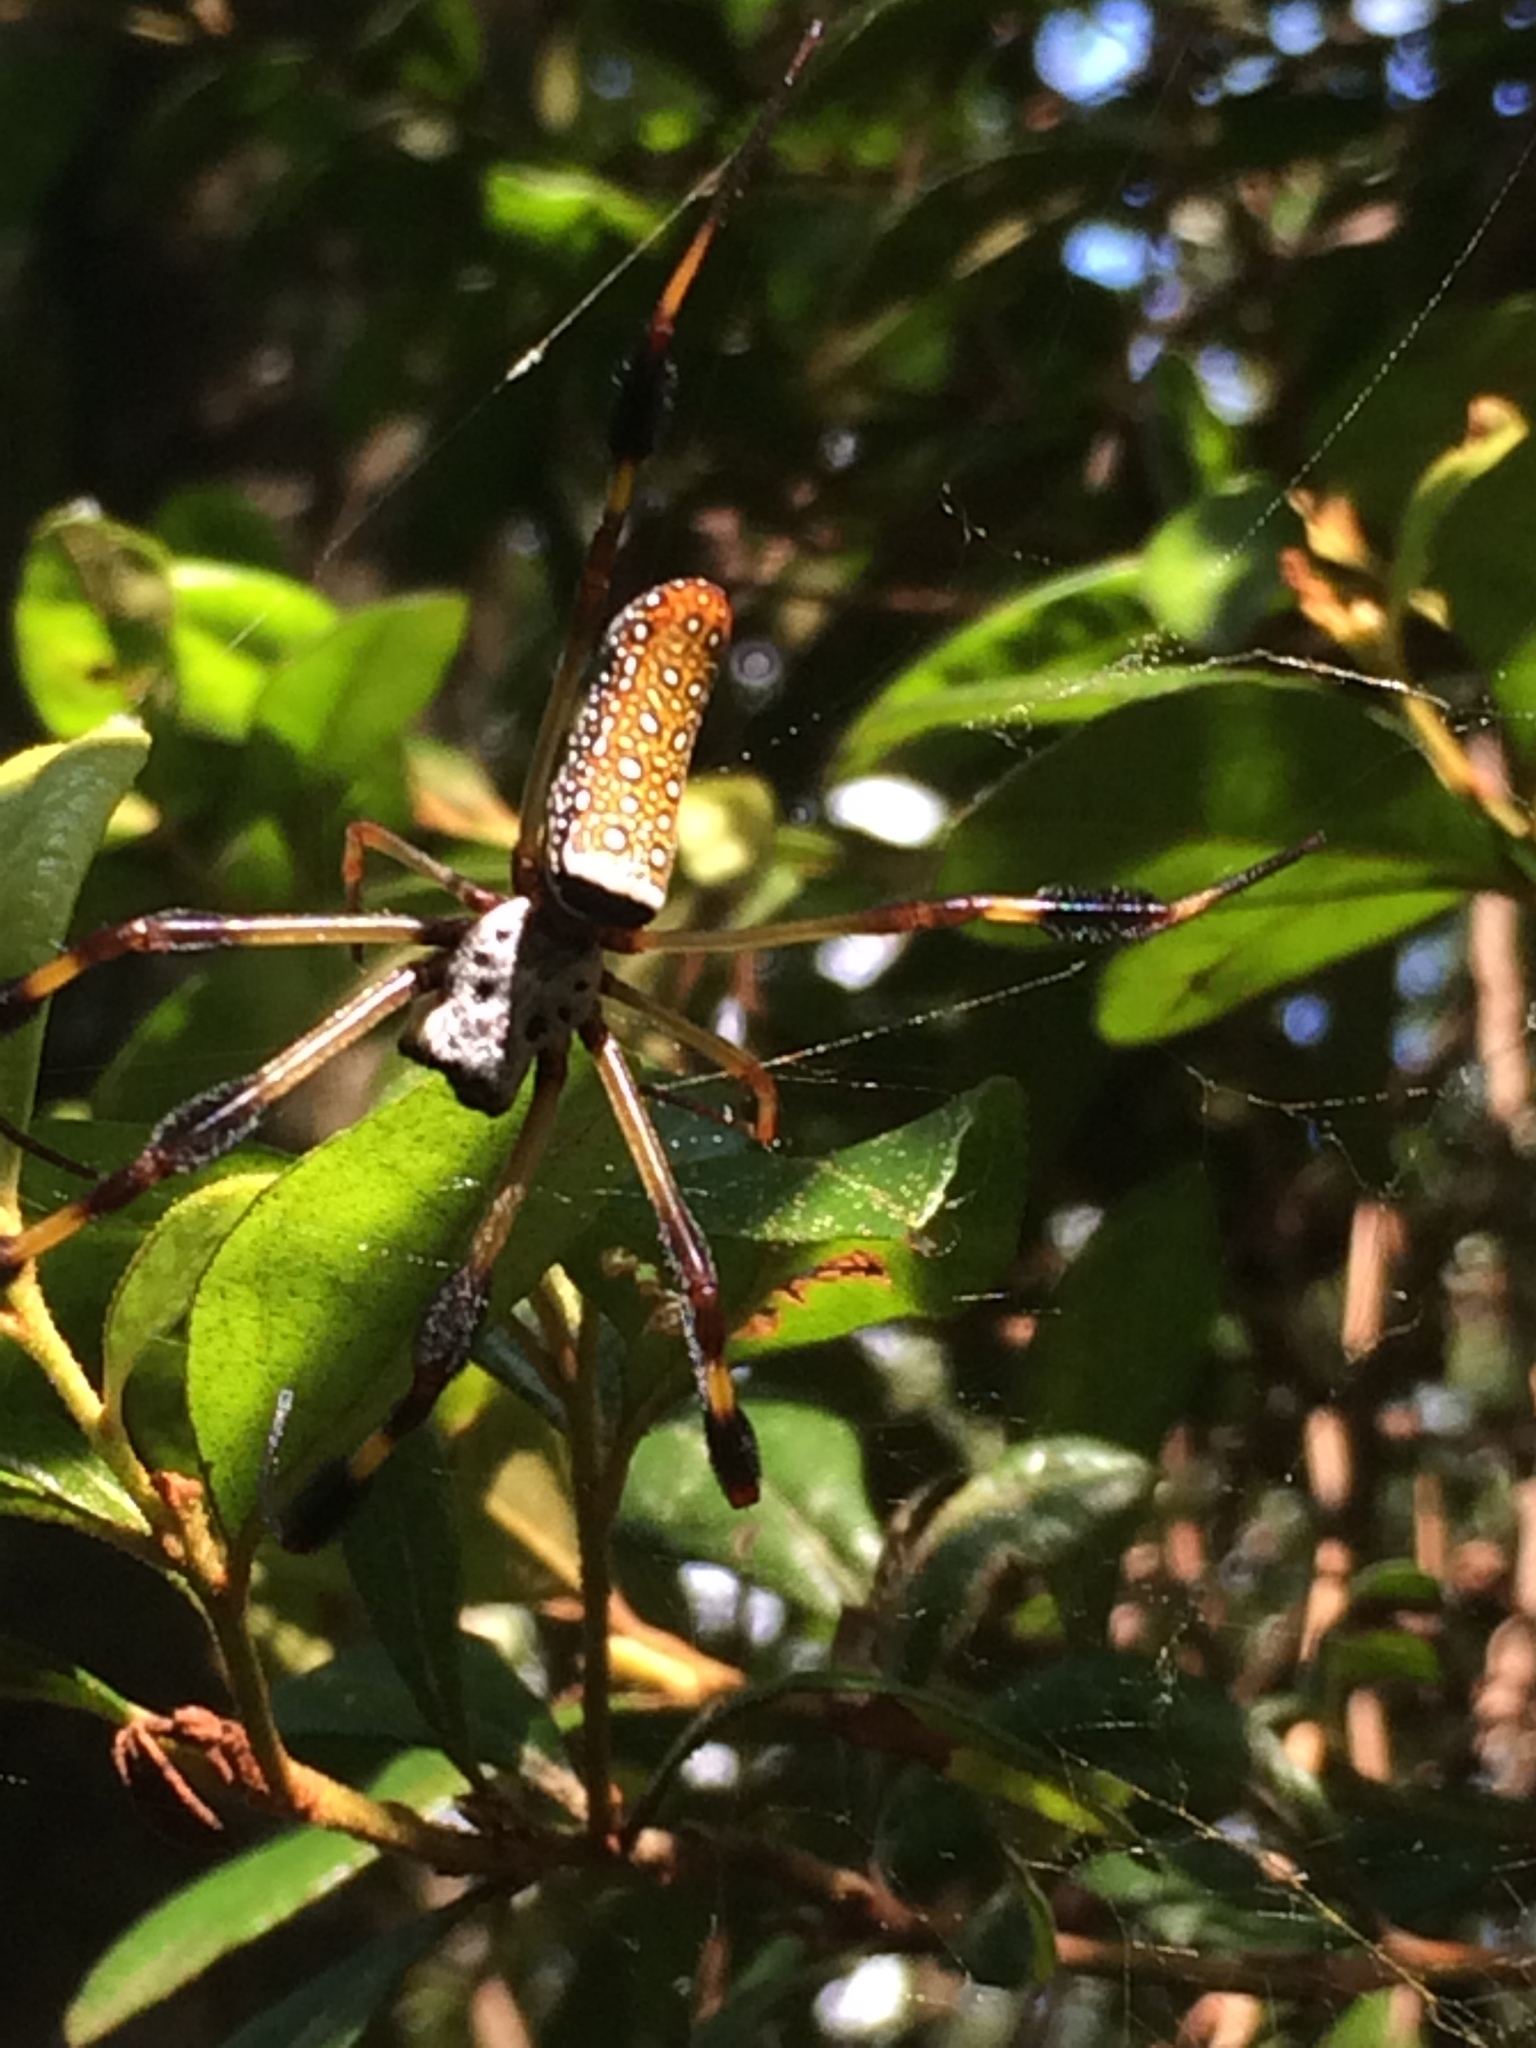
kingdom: Animalia
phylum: Arthropoda
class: Arachnida
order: Araneae
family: Araneidae
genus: Trichonephila
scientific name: Trichonephila clavipes
